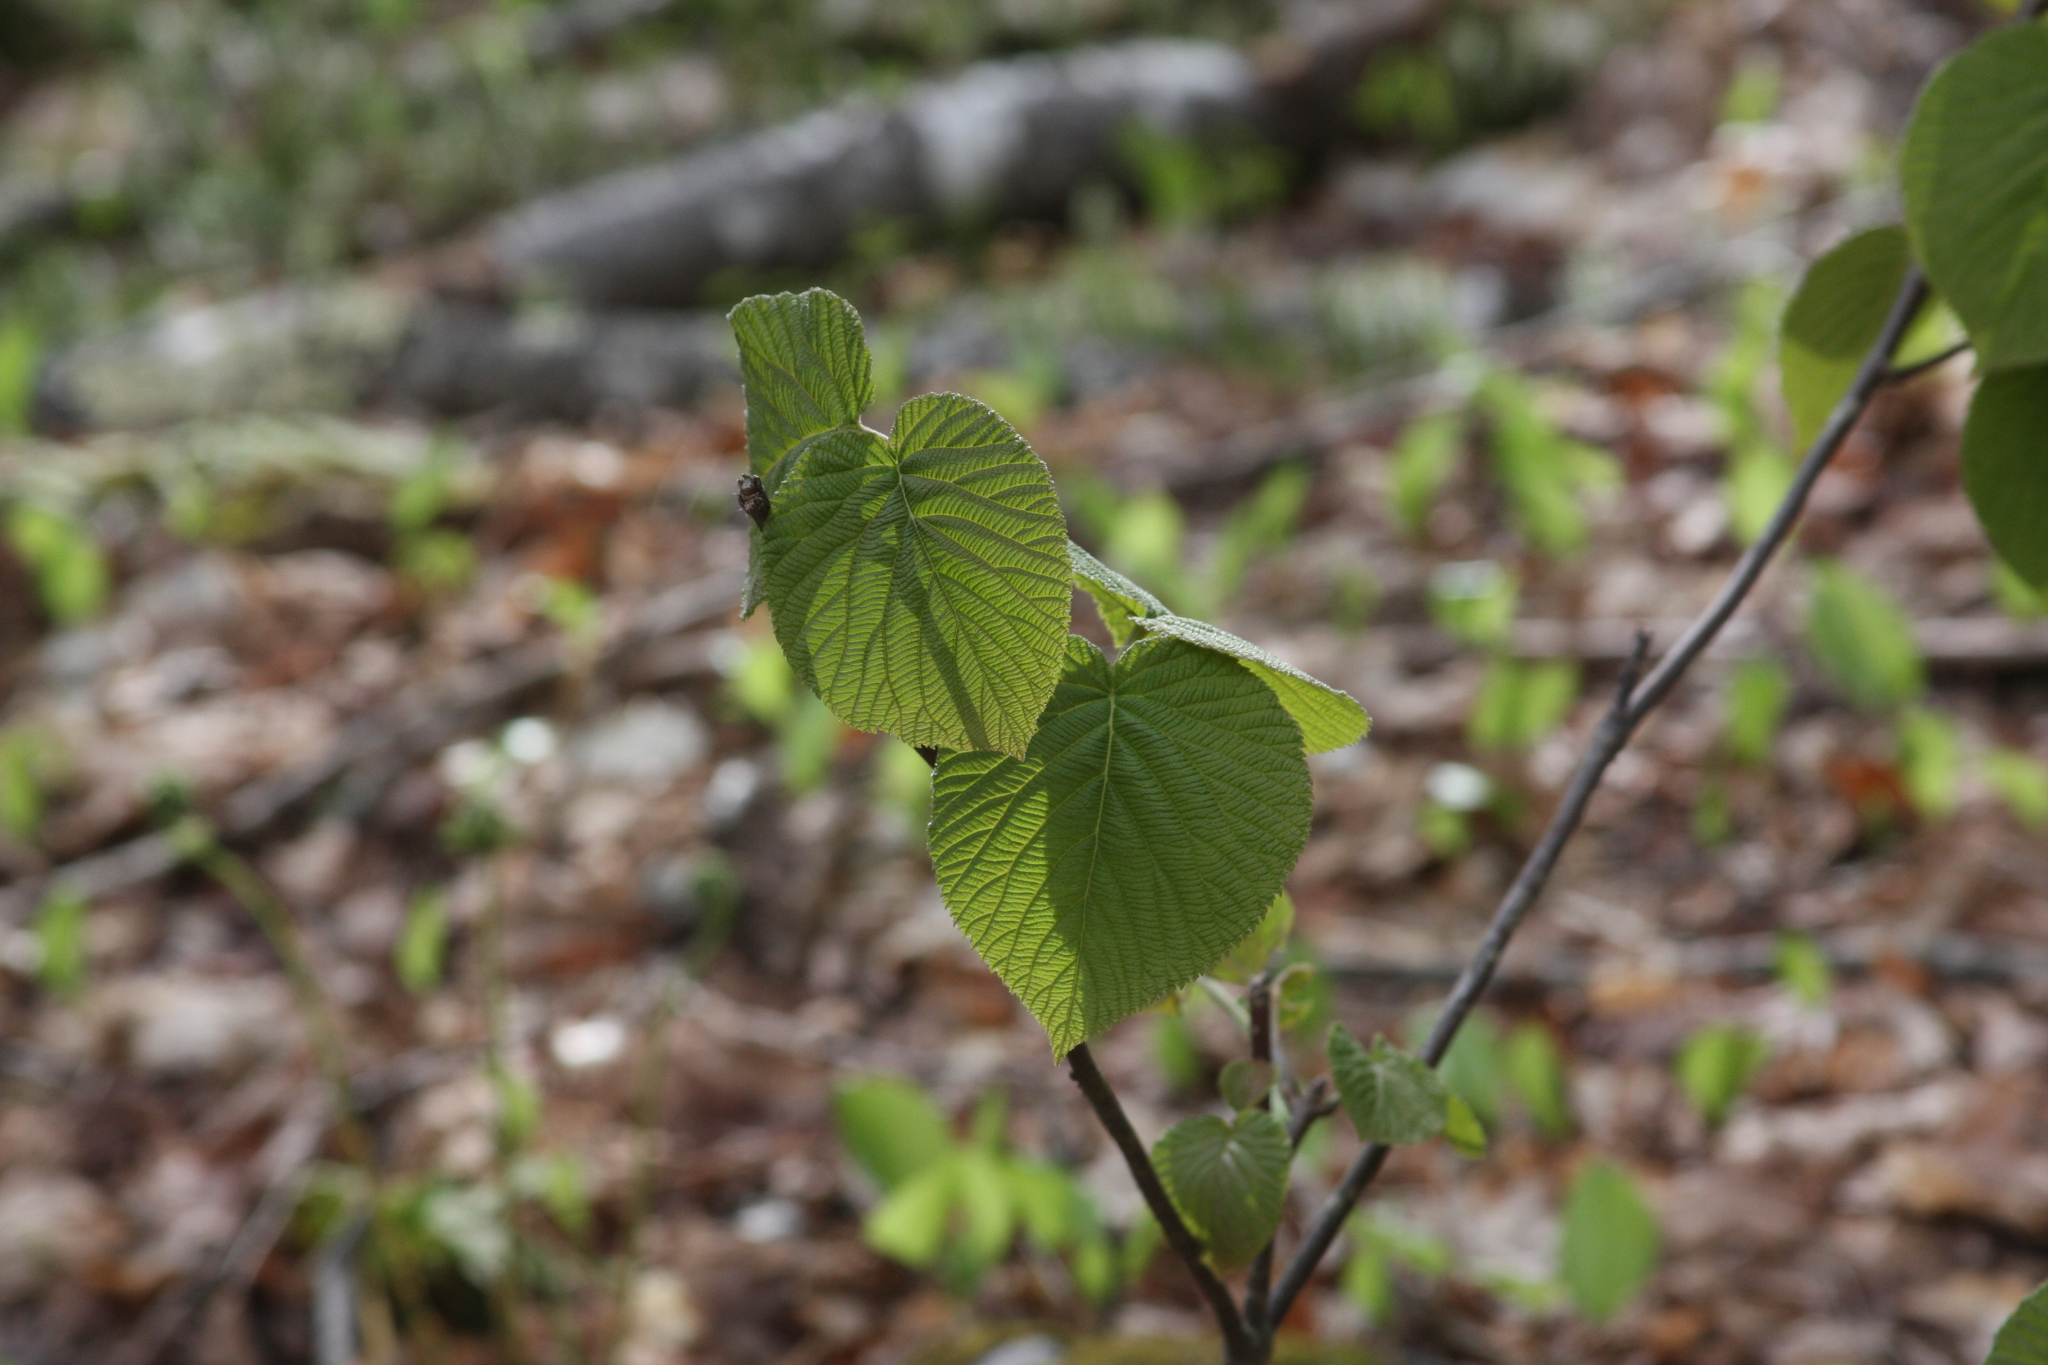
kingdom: Plantae
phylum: Tracheophyta
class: Magnoliopsida
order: Dipsacales
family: Viburnaceae
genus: Viburnum
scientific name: Viburnum lantanoides
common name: Hobblebush
